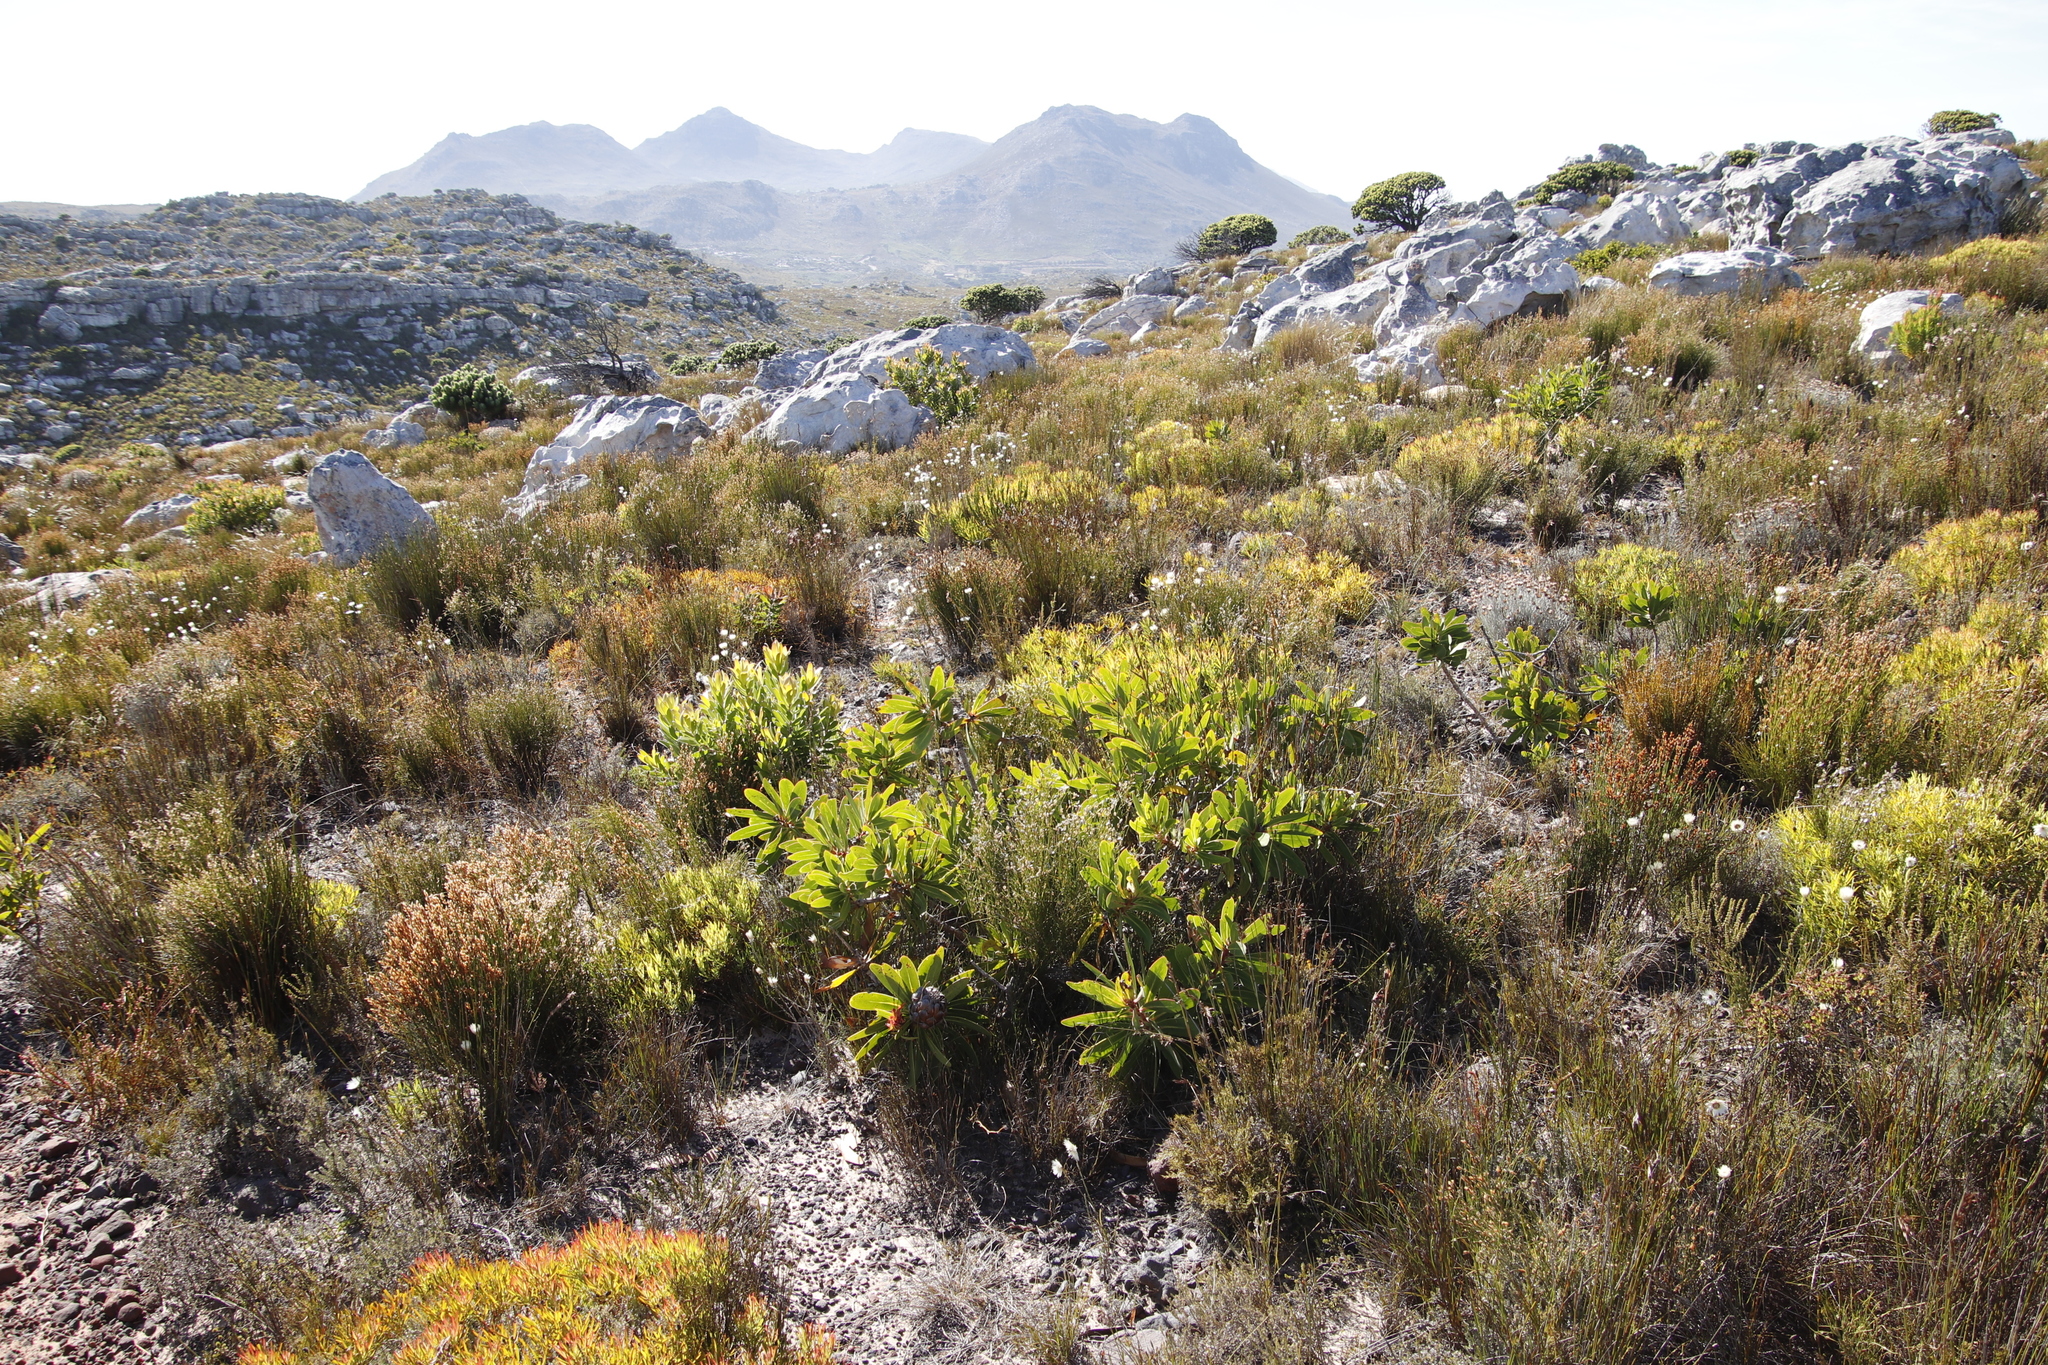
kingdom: Plantae
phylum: Tracheophyta
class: Magnoliopsida
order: Proteales
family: Proteaceae
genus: Protea
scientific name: Protea nitida
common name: Tree protea
